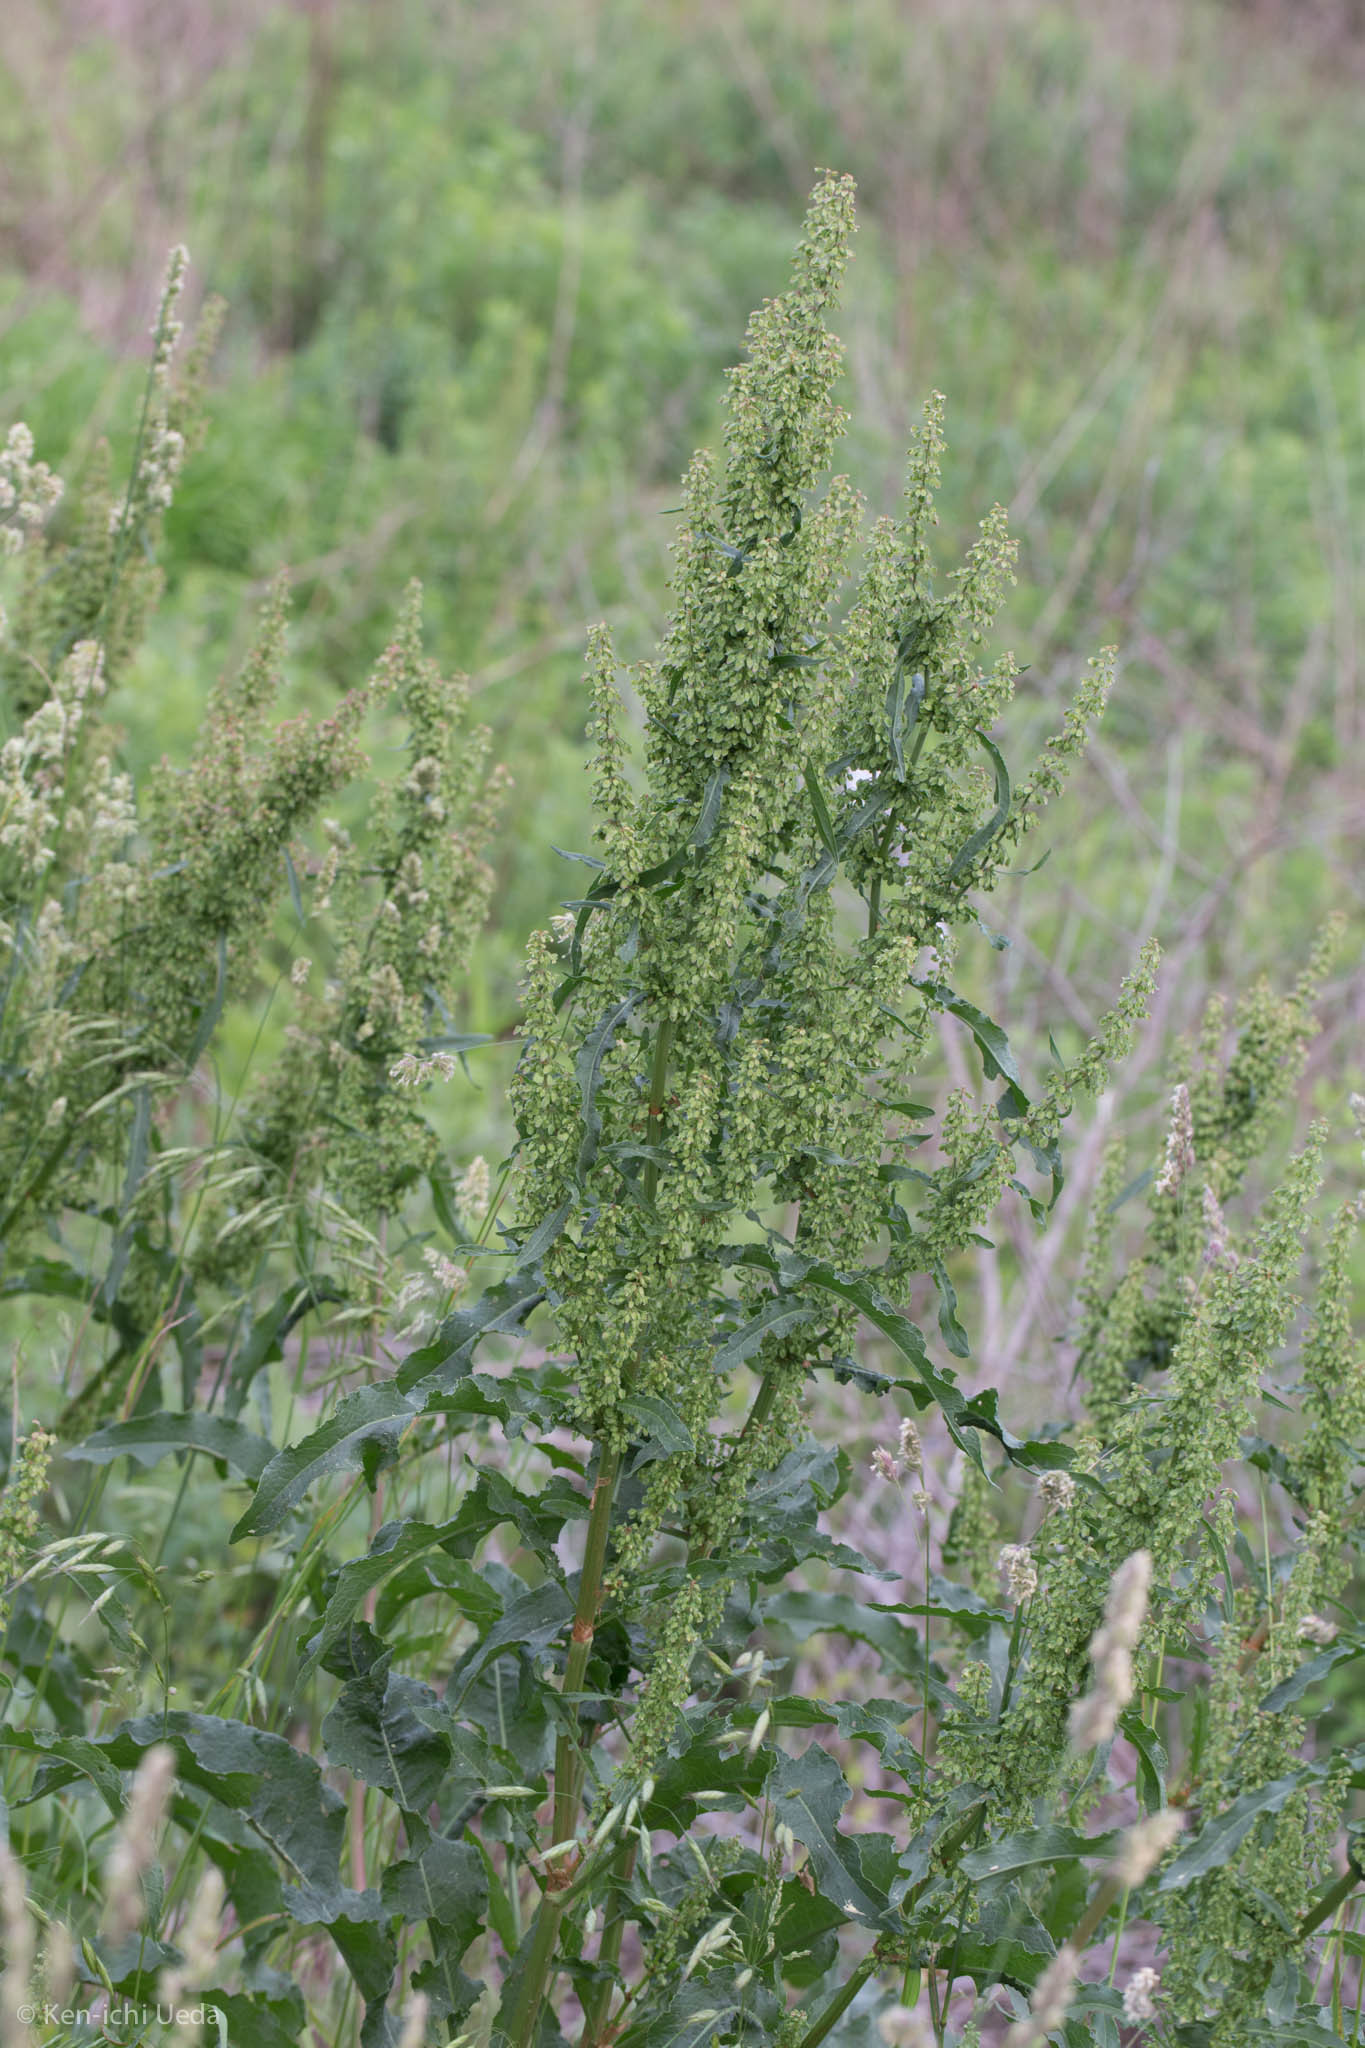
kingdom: Plantae
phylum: Tracheophyta
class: Magnoliopsida
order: Caryophyllales
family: Polygonaceae
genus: Rumex
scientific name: Rumex crispus
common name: Curled dock
